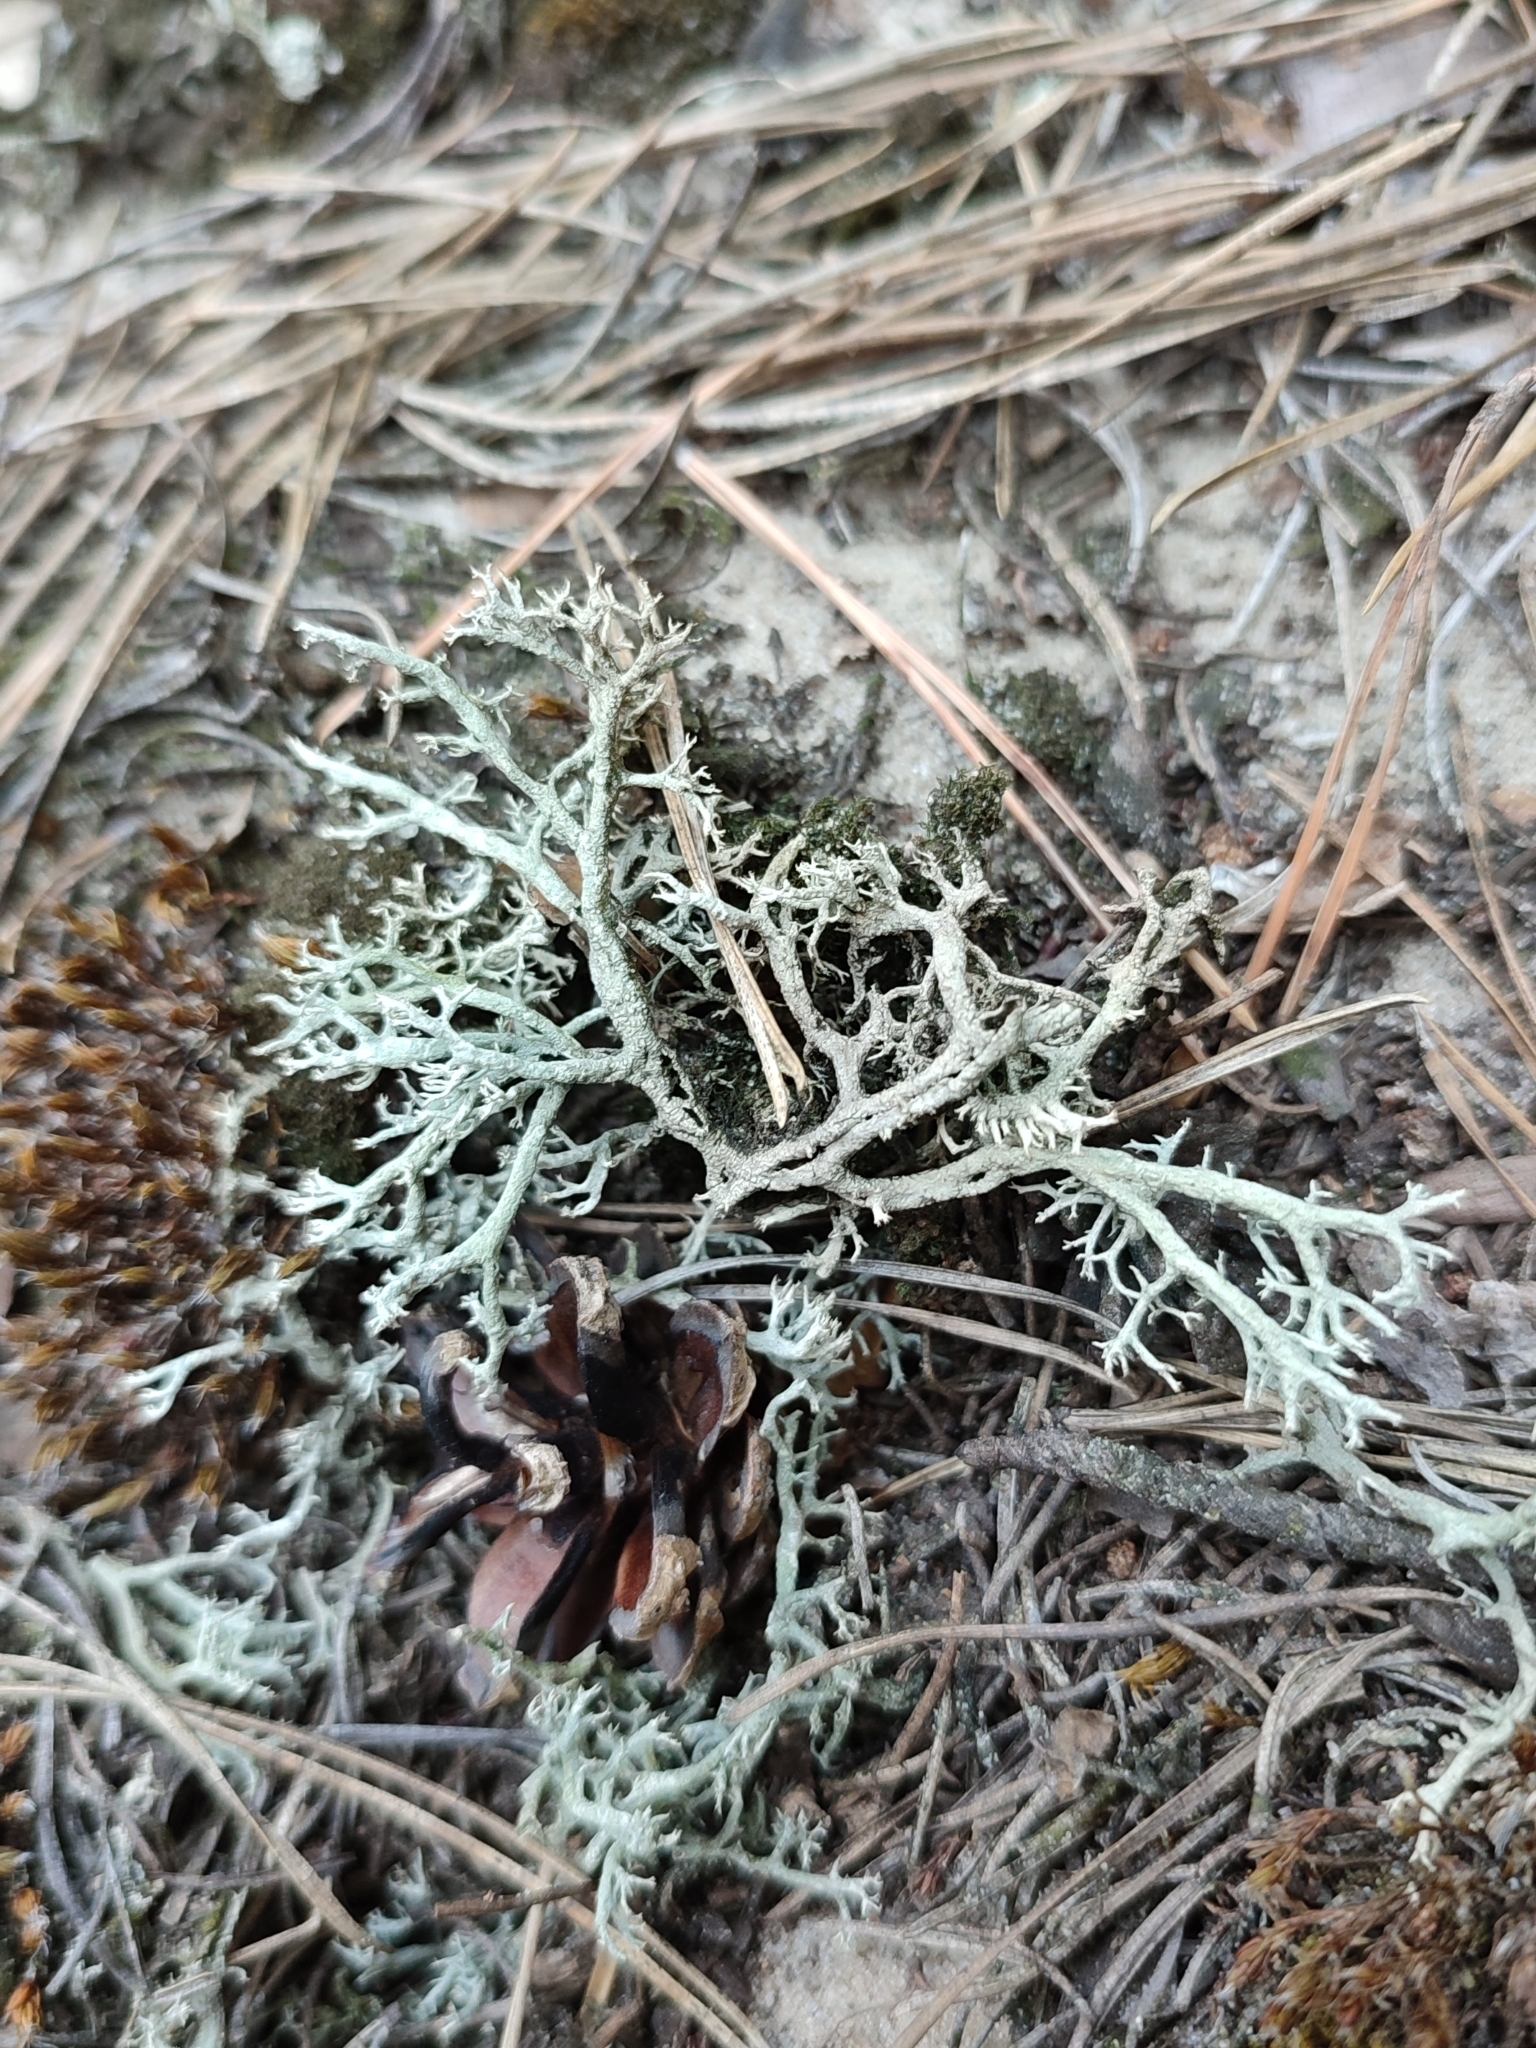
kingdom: Fungi
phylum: Ascomycota
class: Lecanoromycetes
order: Lecanorales
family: Cladoniaceae
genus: Cladonia
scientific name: Cladonia mitis
